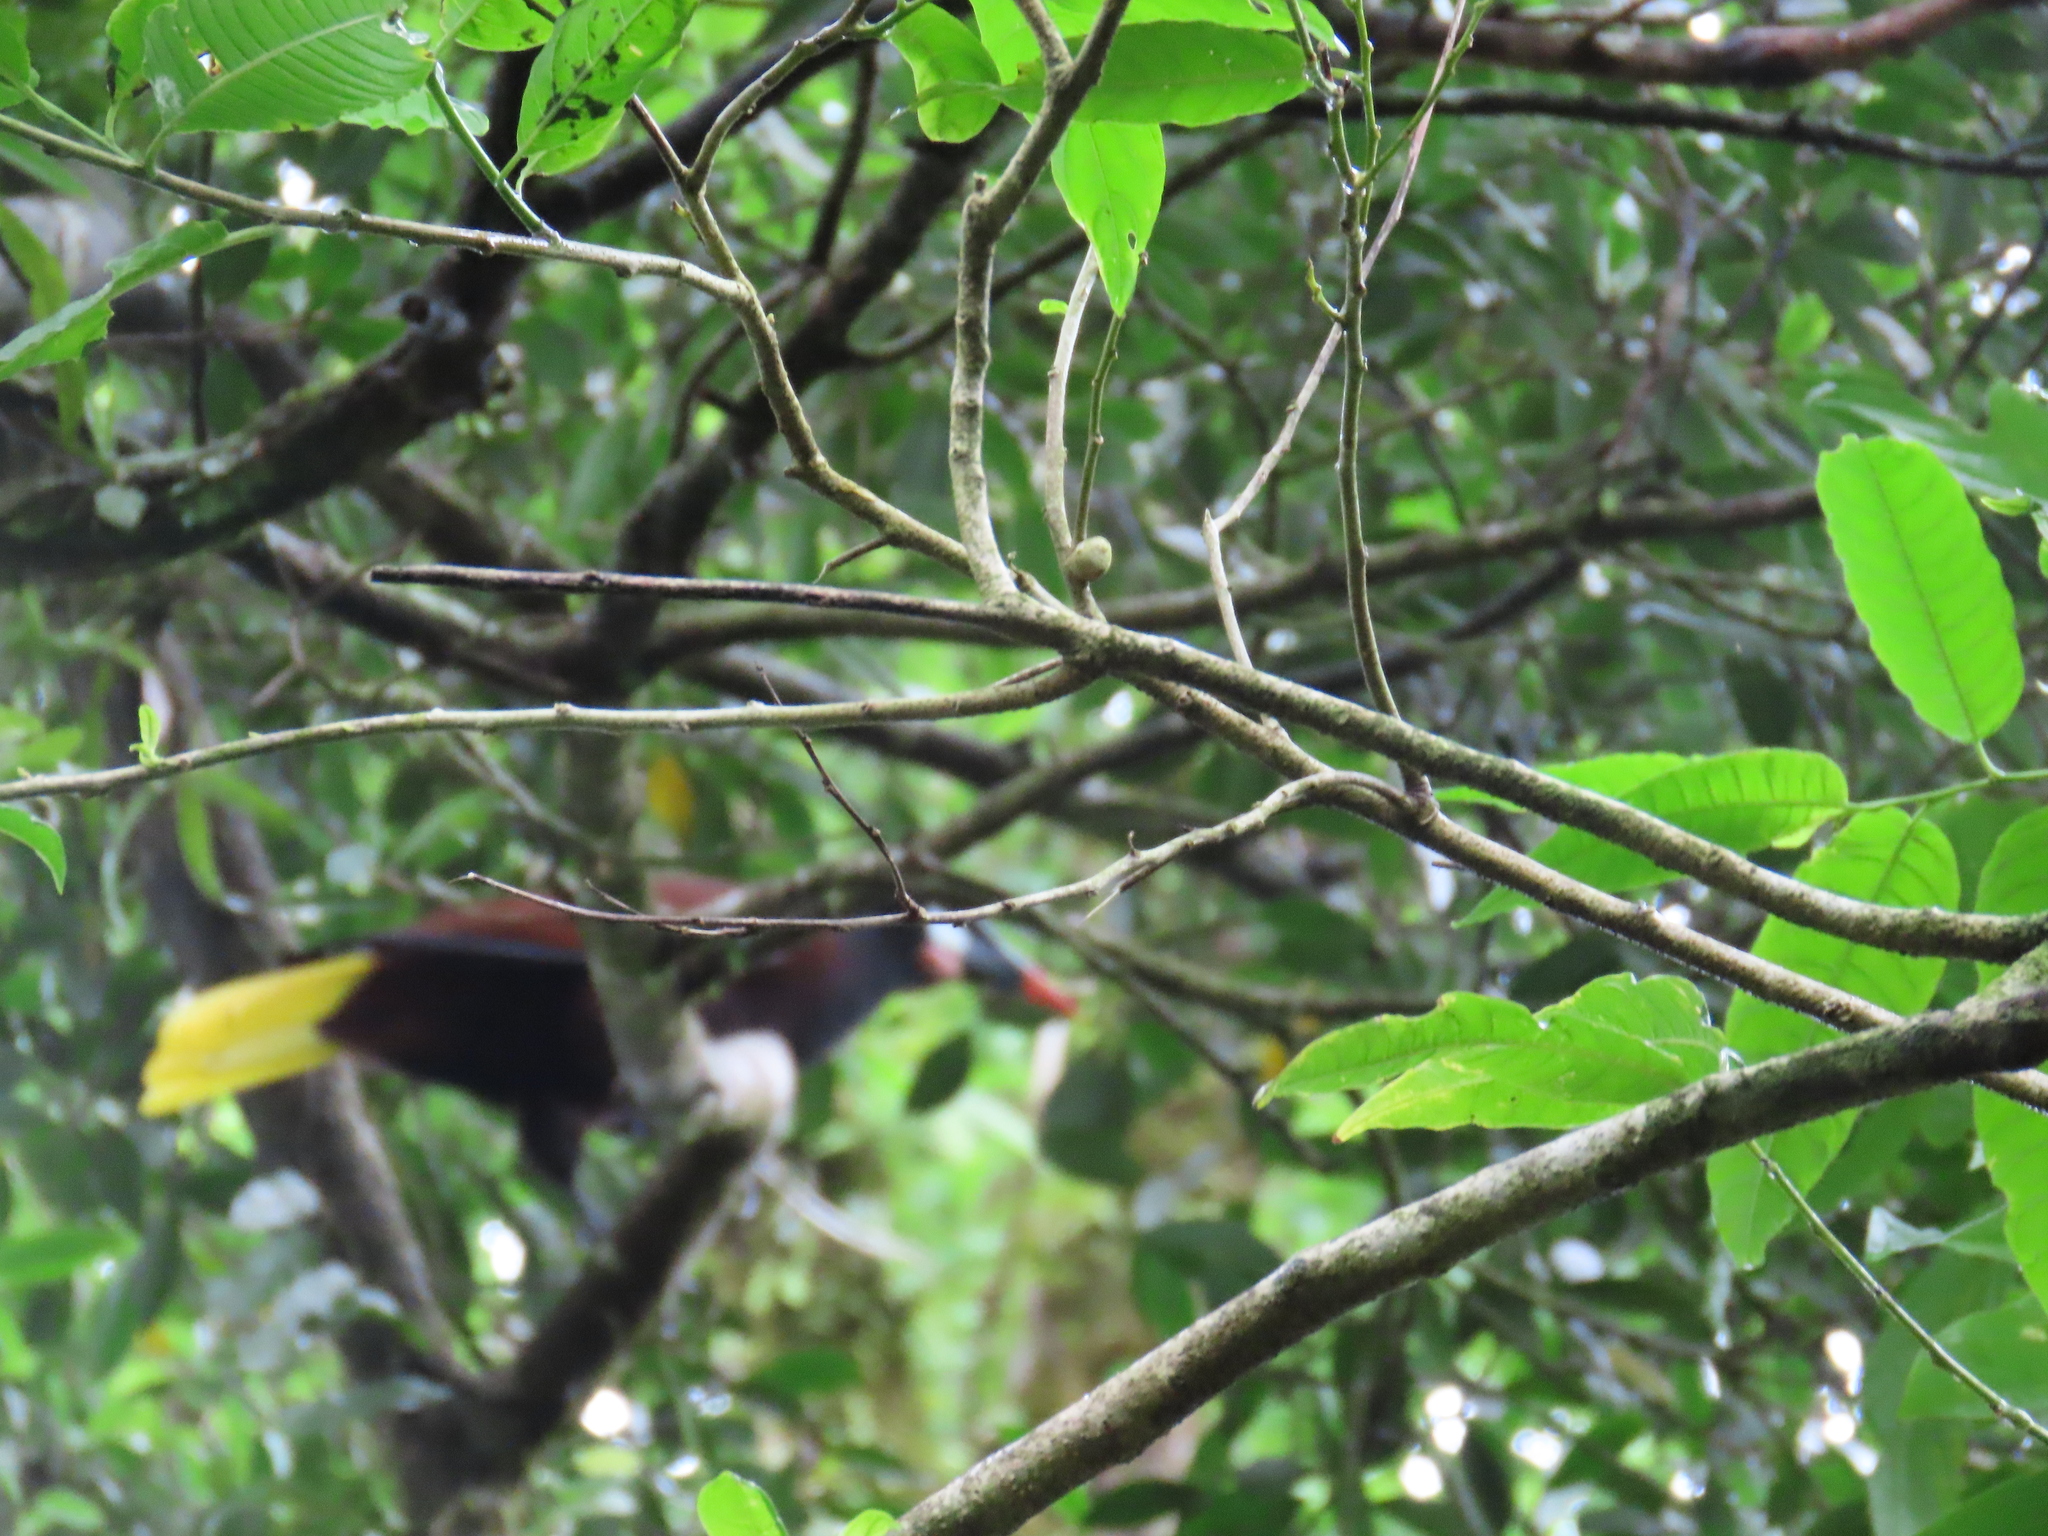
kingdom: Animalia
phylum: Chordata
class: Aves
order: Passeriformes
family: Icteridae
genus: Psarocolius
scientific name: Psarocolius montezuma
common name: Montezuma oropendola
